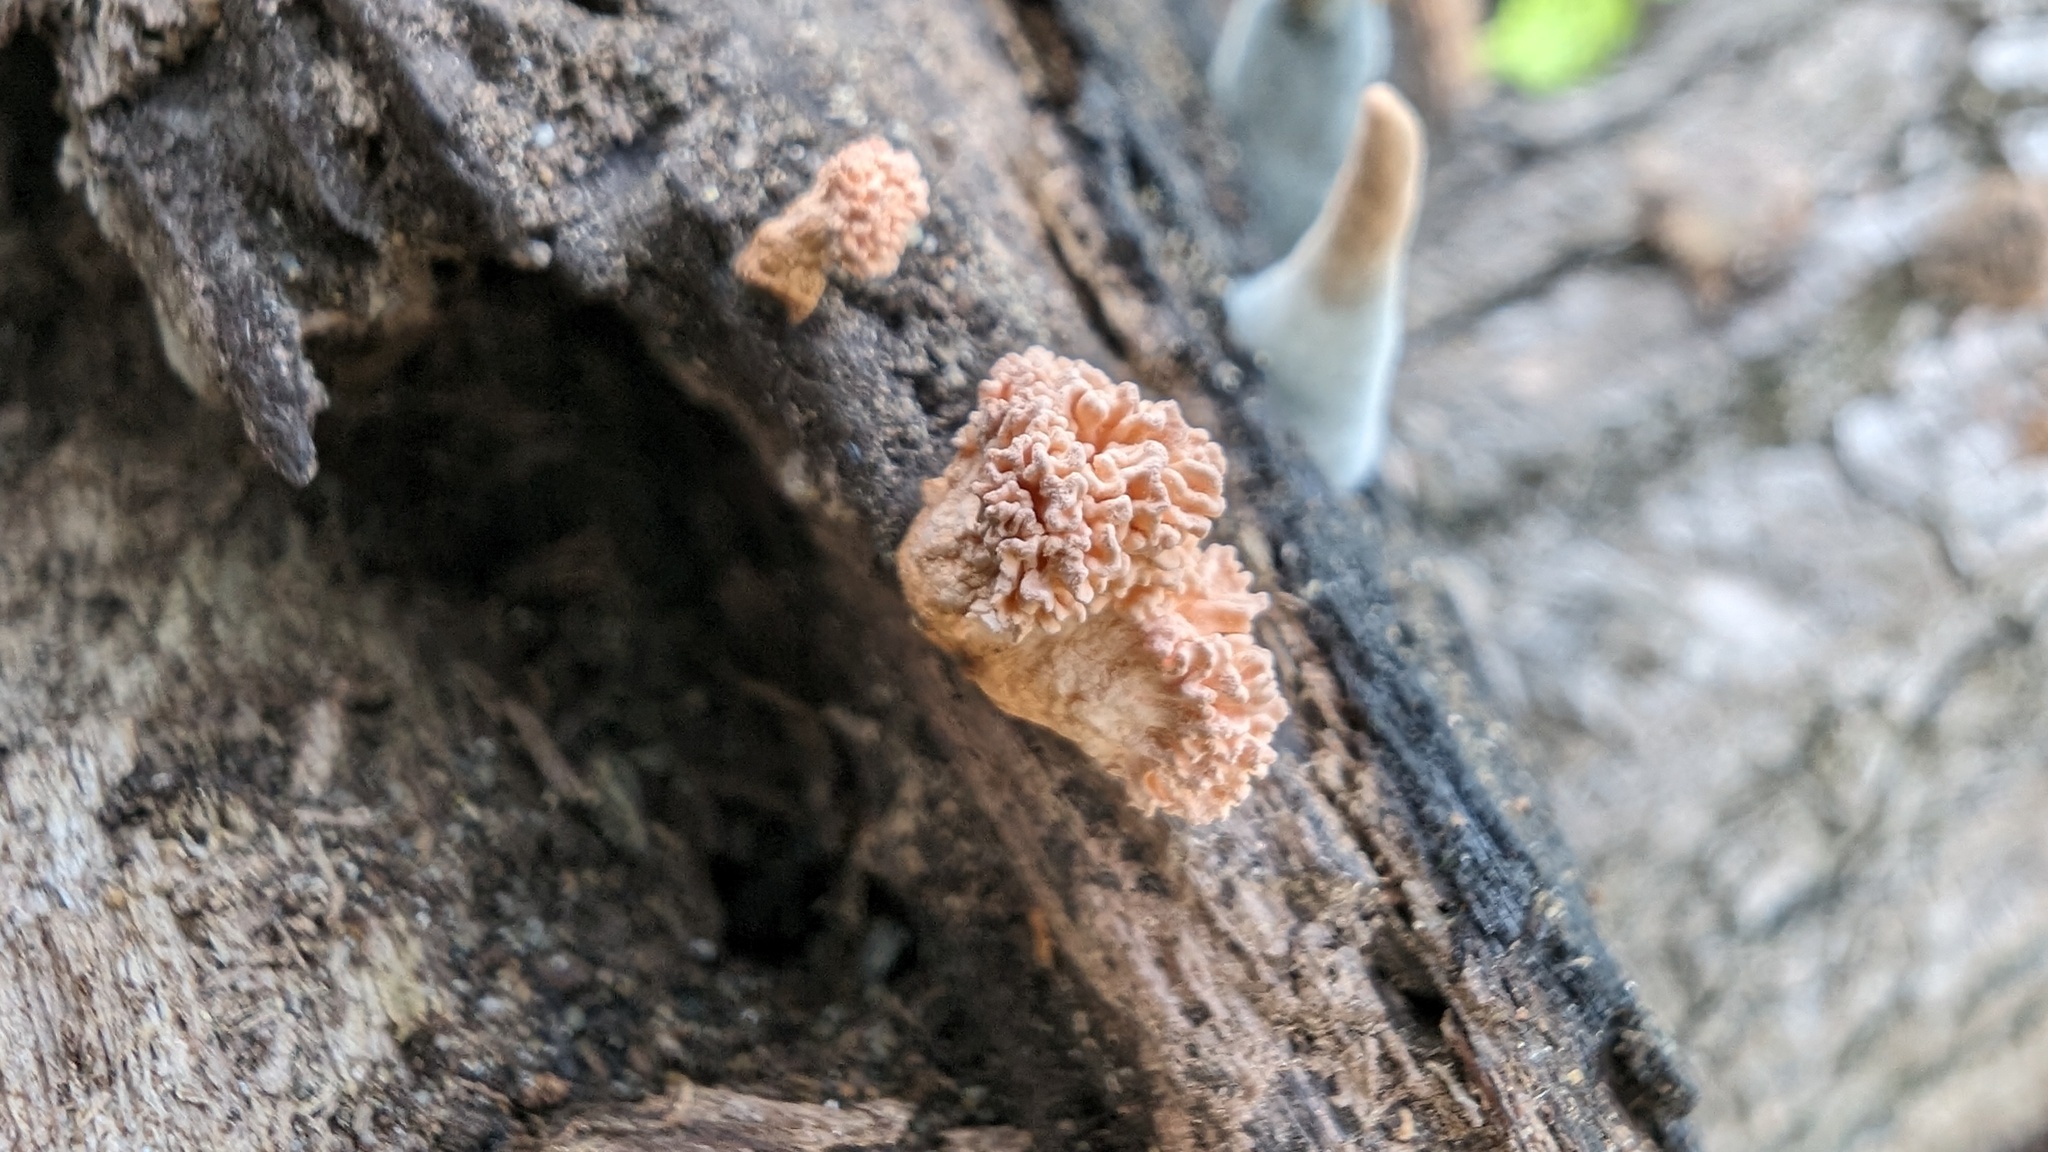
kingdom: Fungi
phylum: Ascomycota
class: Sordariomycetes
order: Xylariales
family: Xylariaceae
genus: Xylaria
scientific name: Xylaria cubensis
